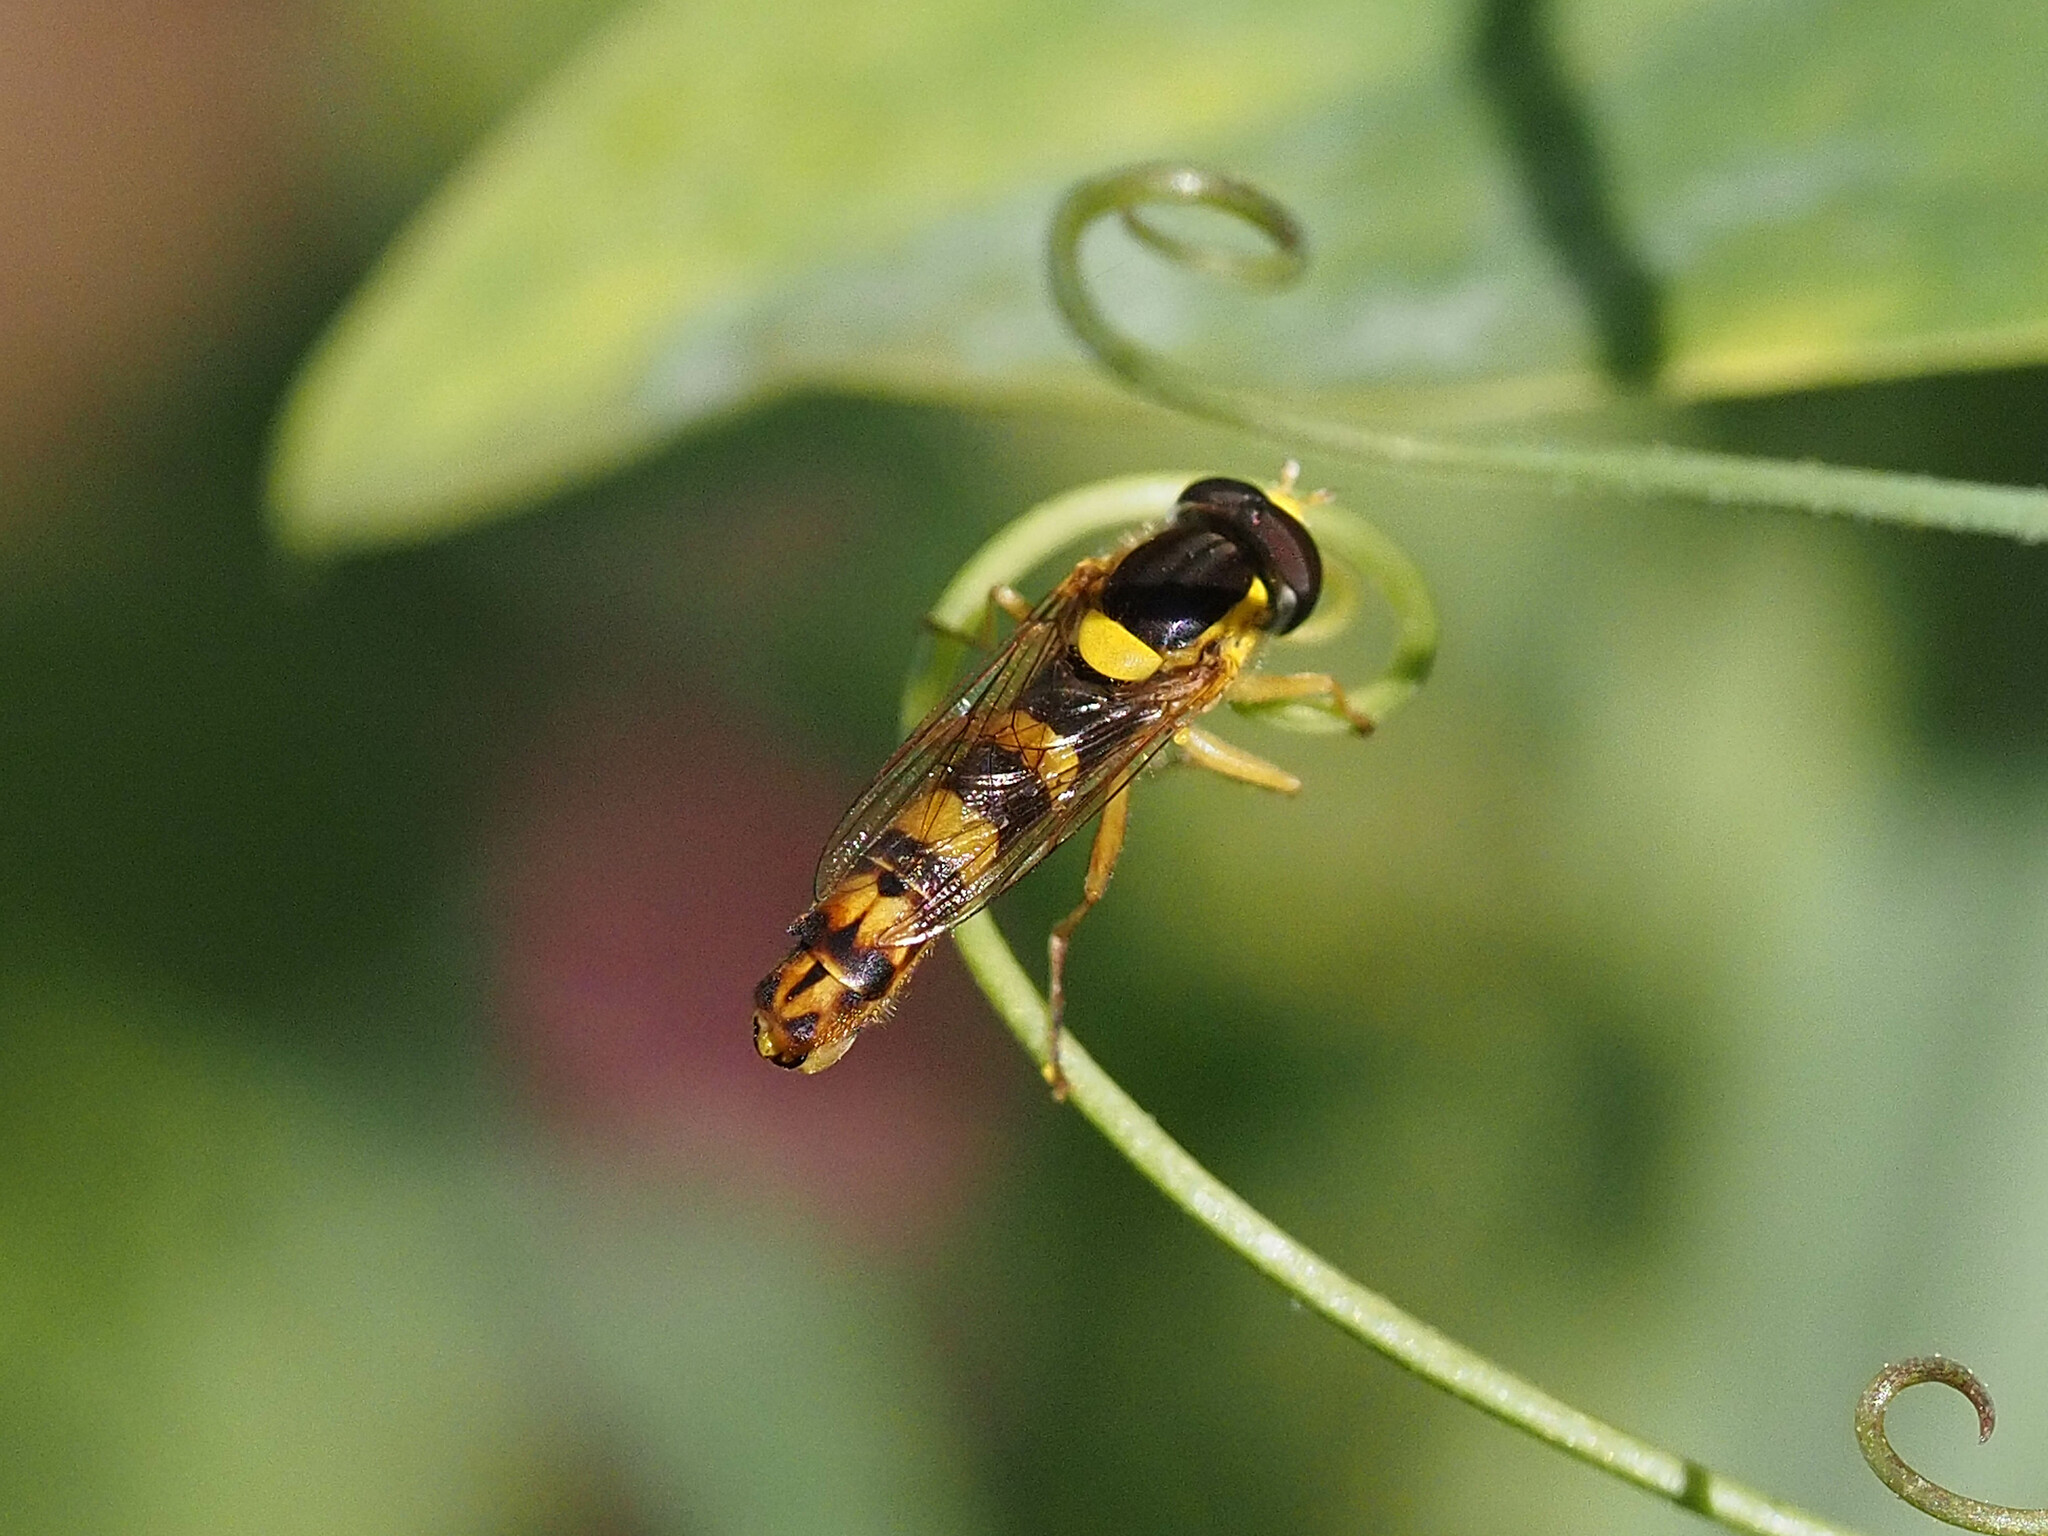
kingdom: Animalia
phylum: Arthropoda
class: Insecta
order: Diptera
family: Syrphidae
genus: Sphaerophoria
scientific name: Sphaerophoria scripta
